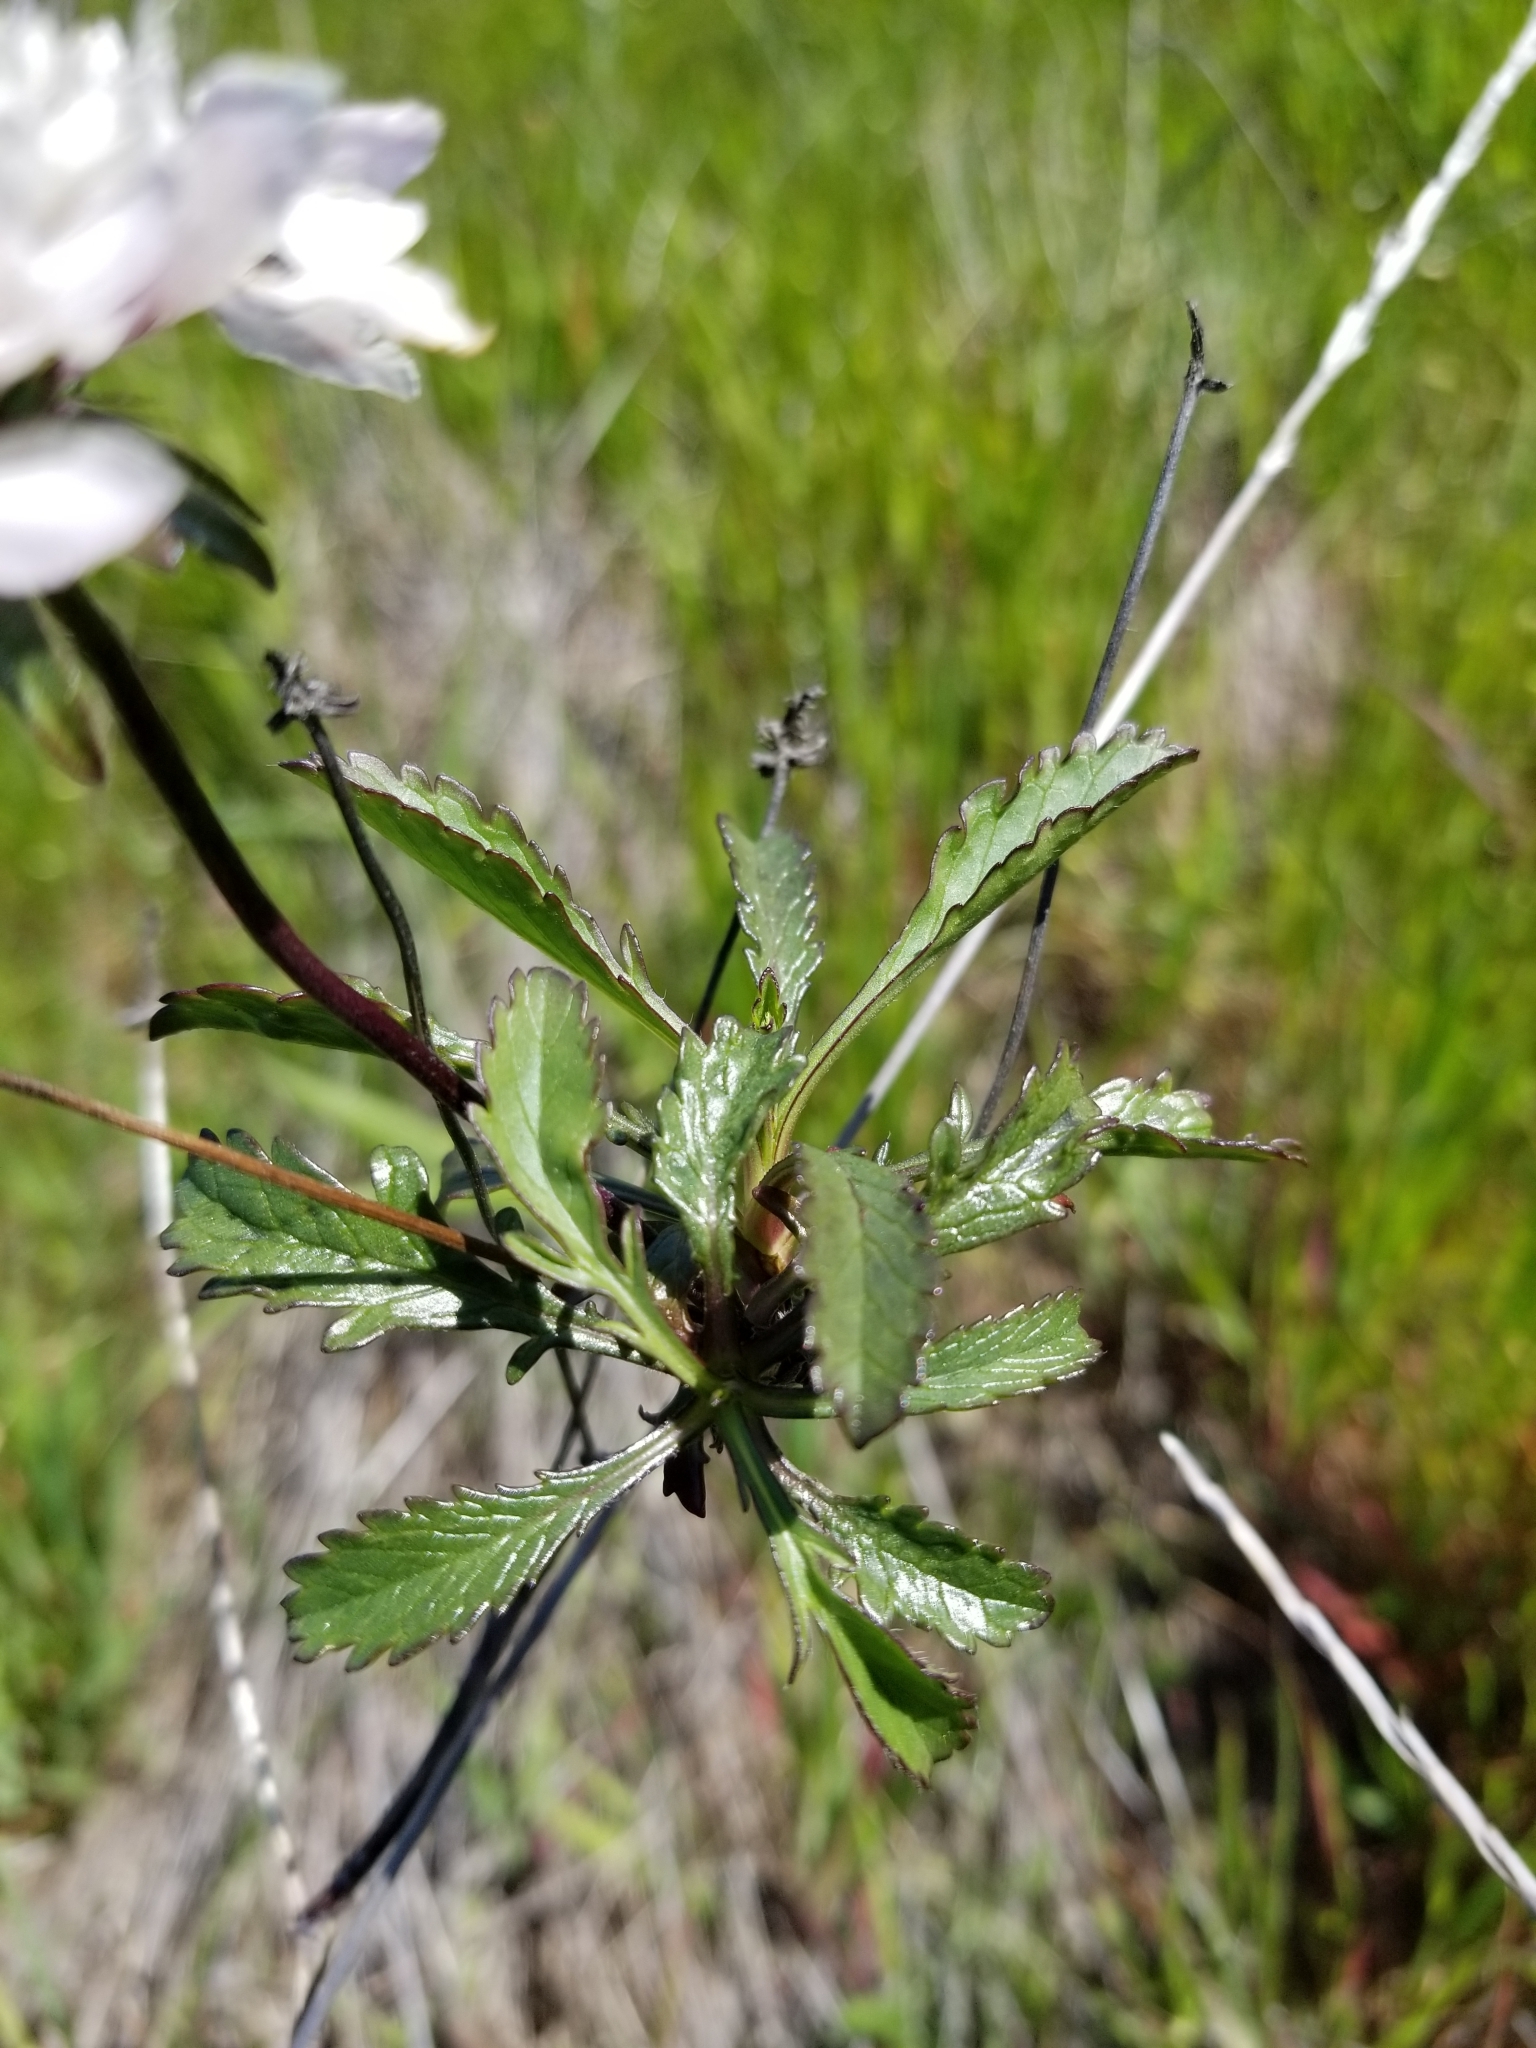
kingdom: Plantae
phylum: Tracheophyta
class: Magnoliopsida
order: Boraginales
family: Namaceae
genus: Eriodictyon
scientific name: Eriodictyon californicum
